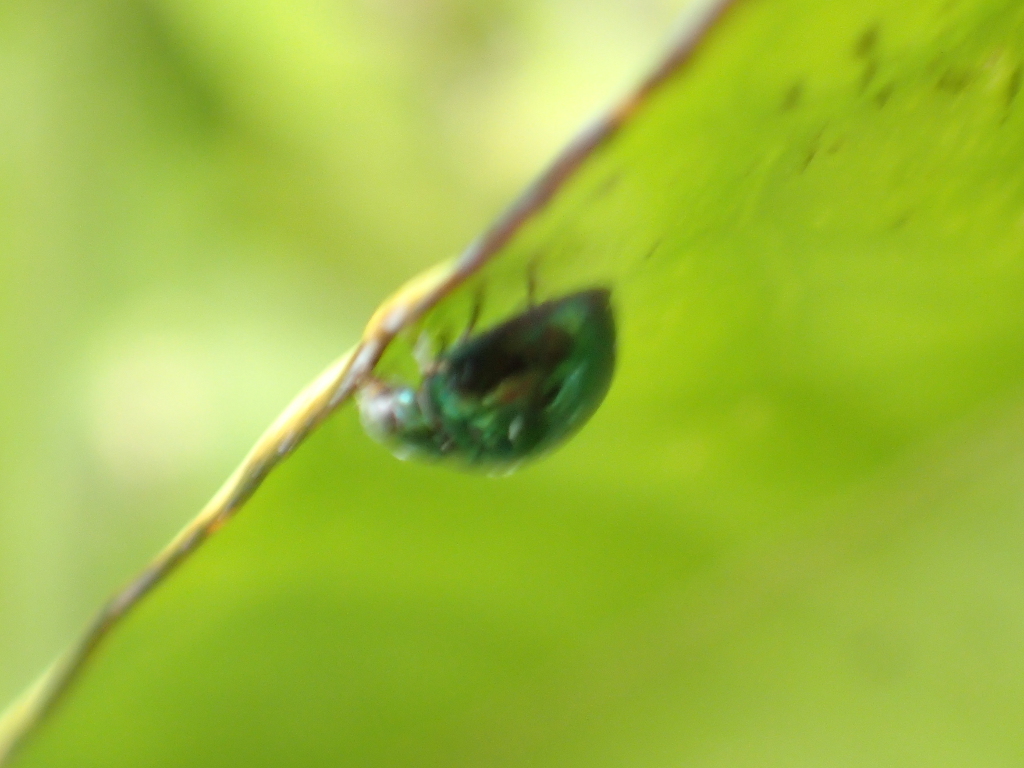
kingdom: Animalia
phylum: Arthropoda
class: Insecta
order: Coleoptera
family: Coccinellidae
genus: Halmus
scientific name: Halmus chalybeus
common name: Steel blue ladybird beetle
